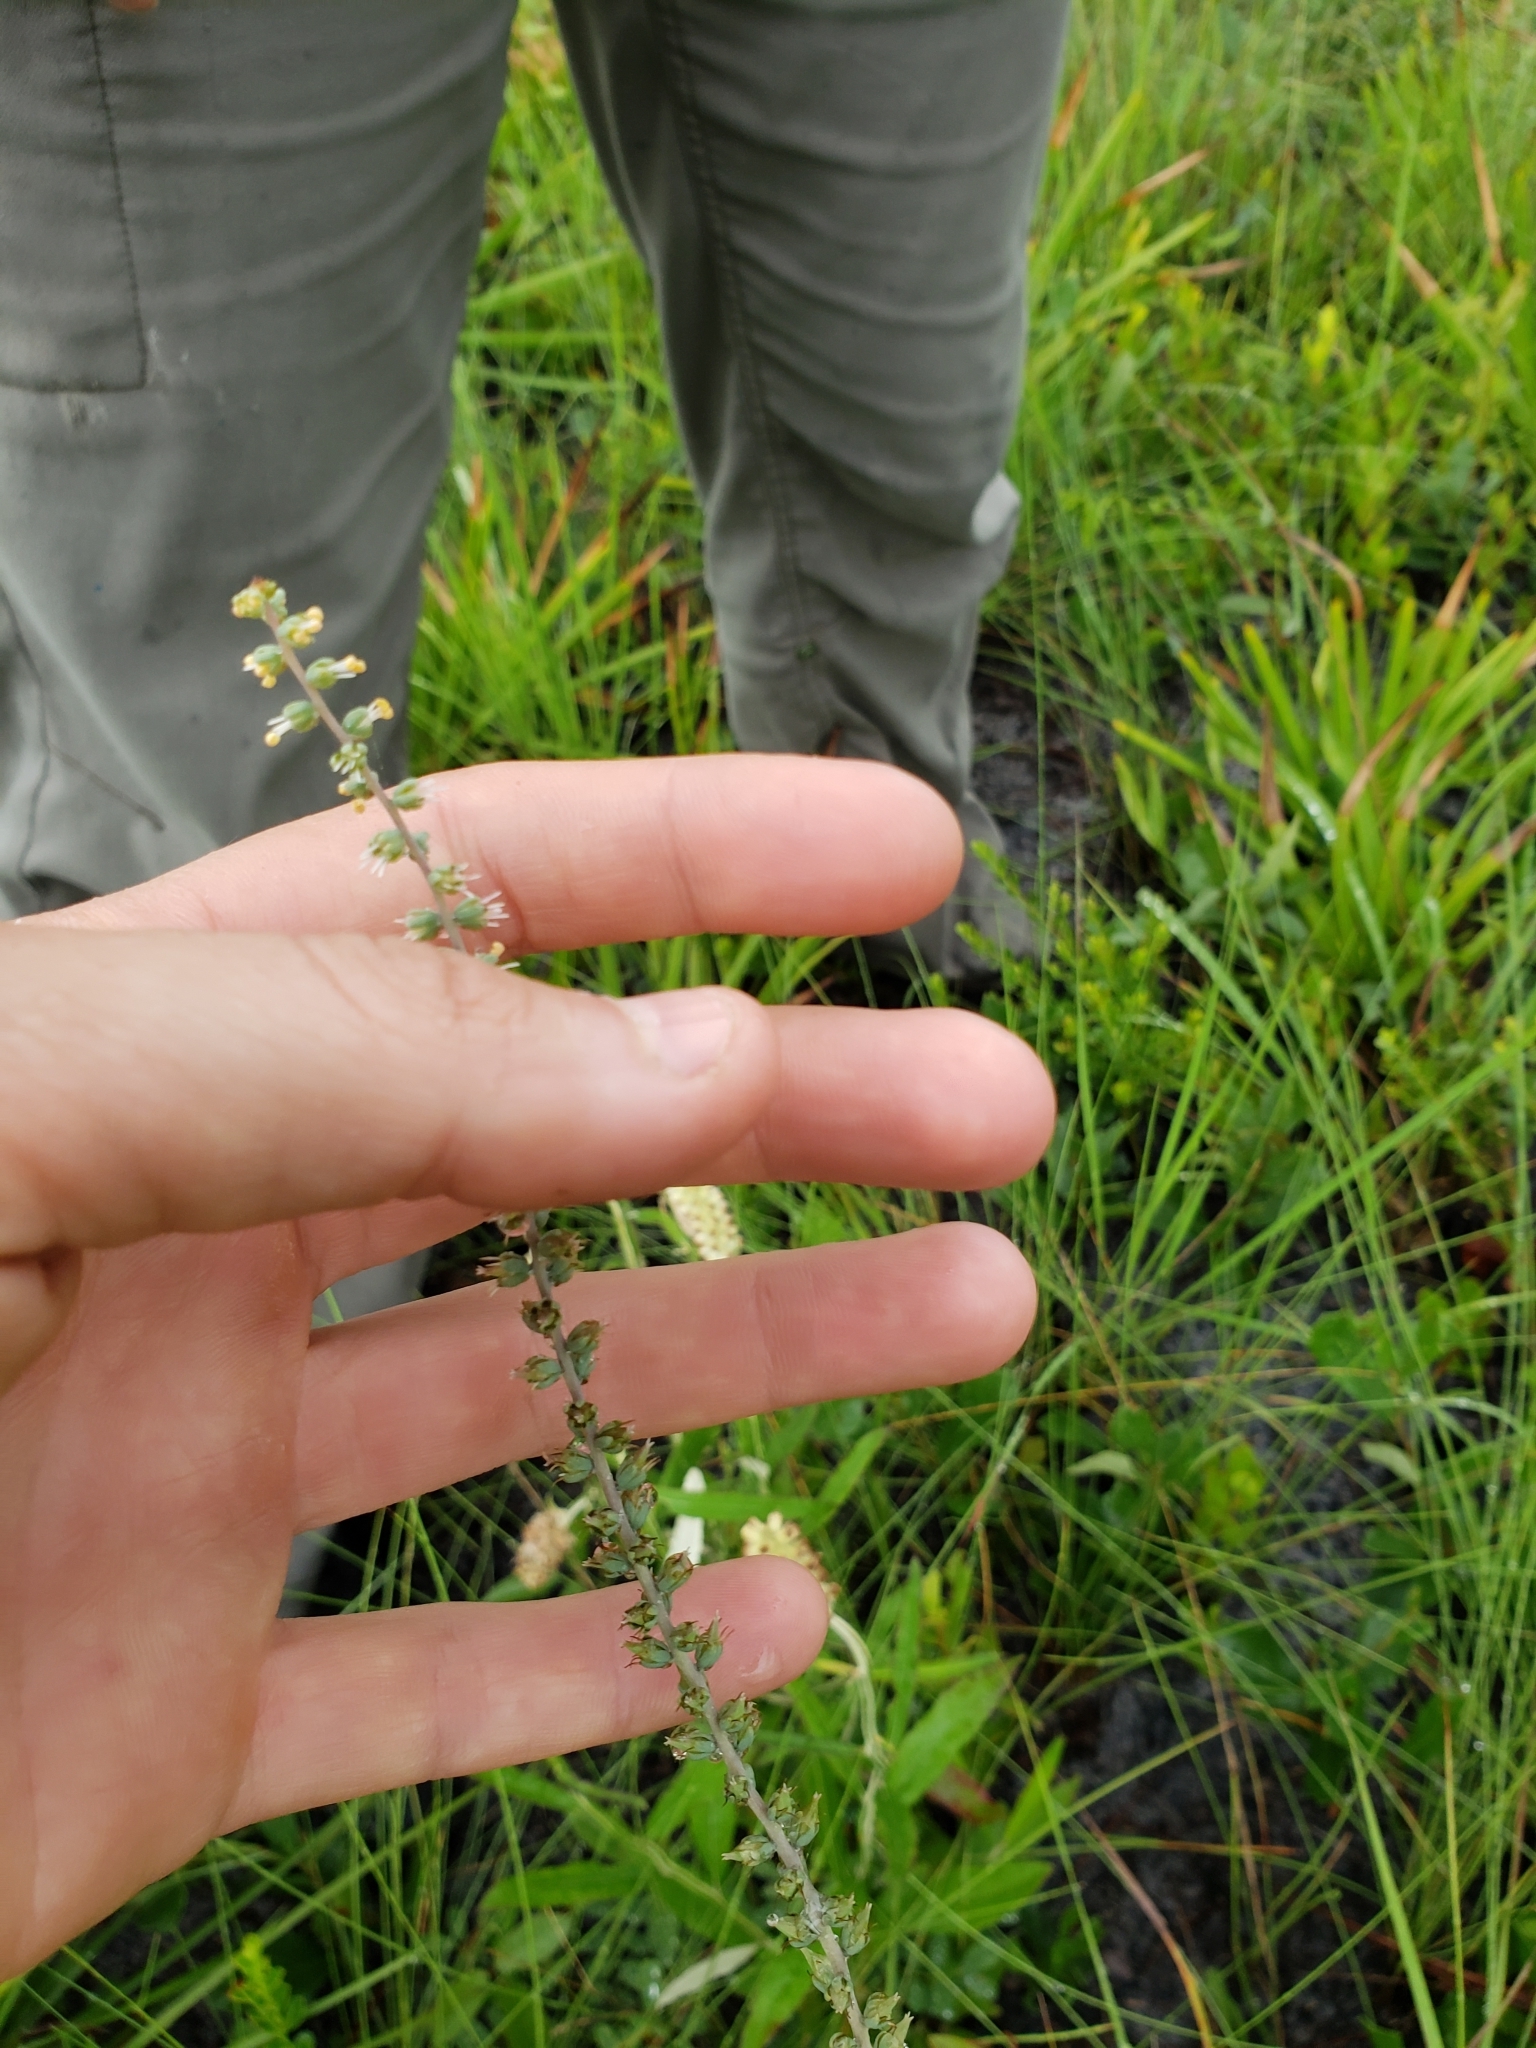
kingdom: Plantae
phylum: Tracheophyta
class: Liliopsida
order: Liliales
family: Melanthiaceae
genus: Schoenocaulon
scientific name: Schoenocaulon dubium
